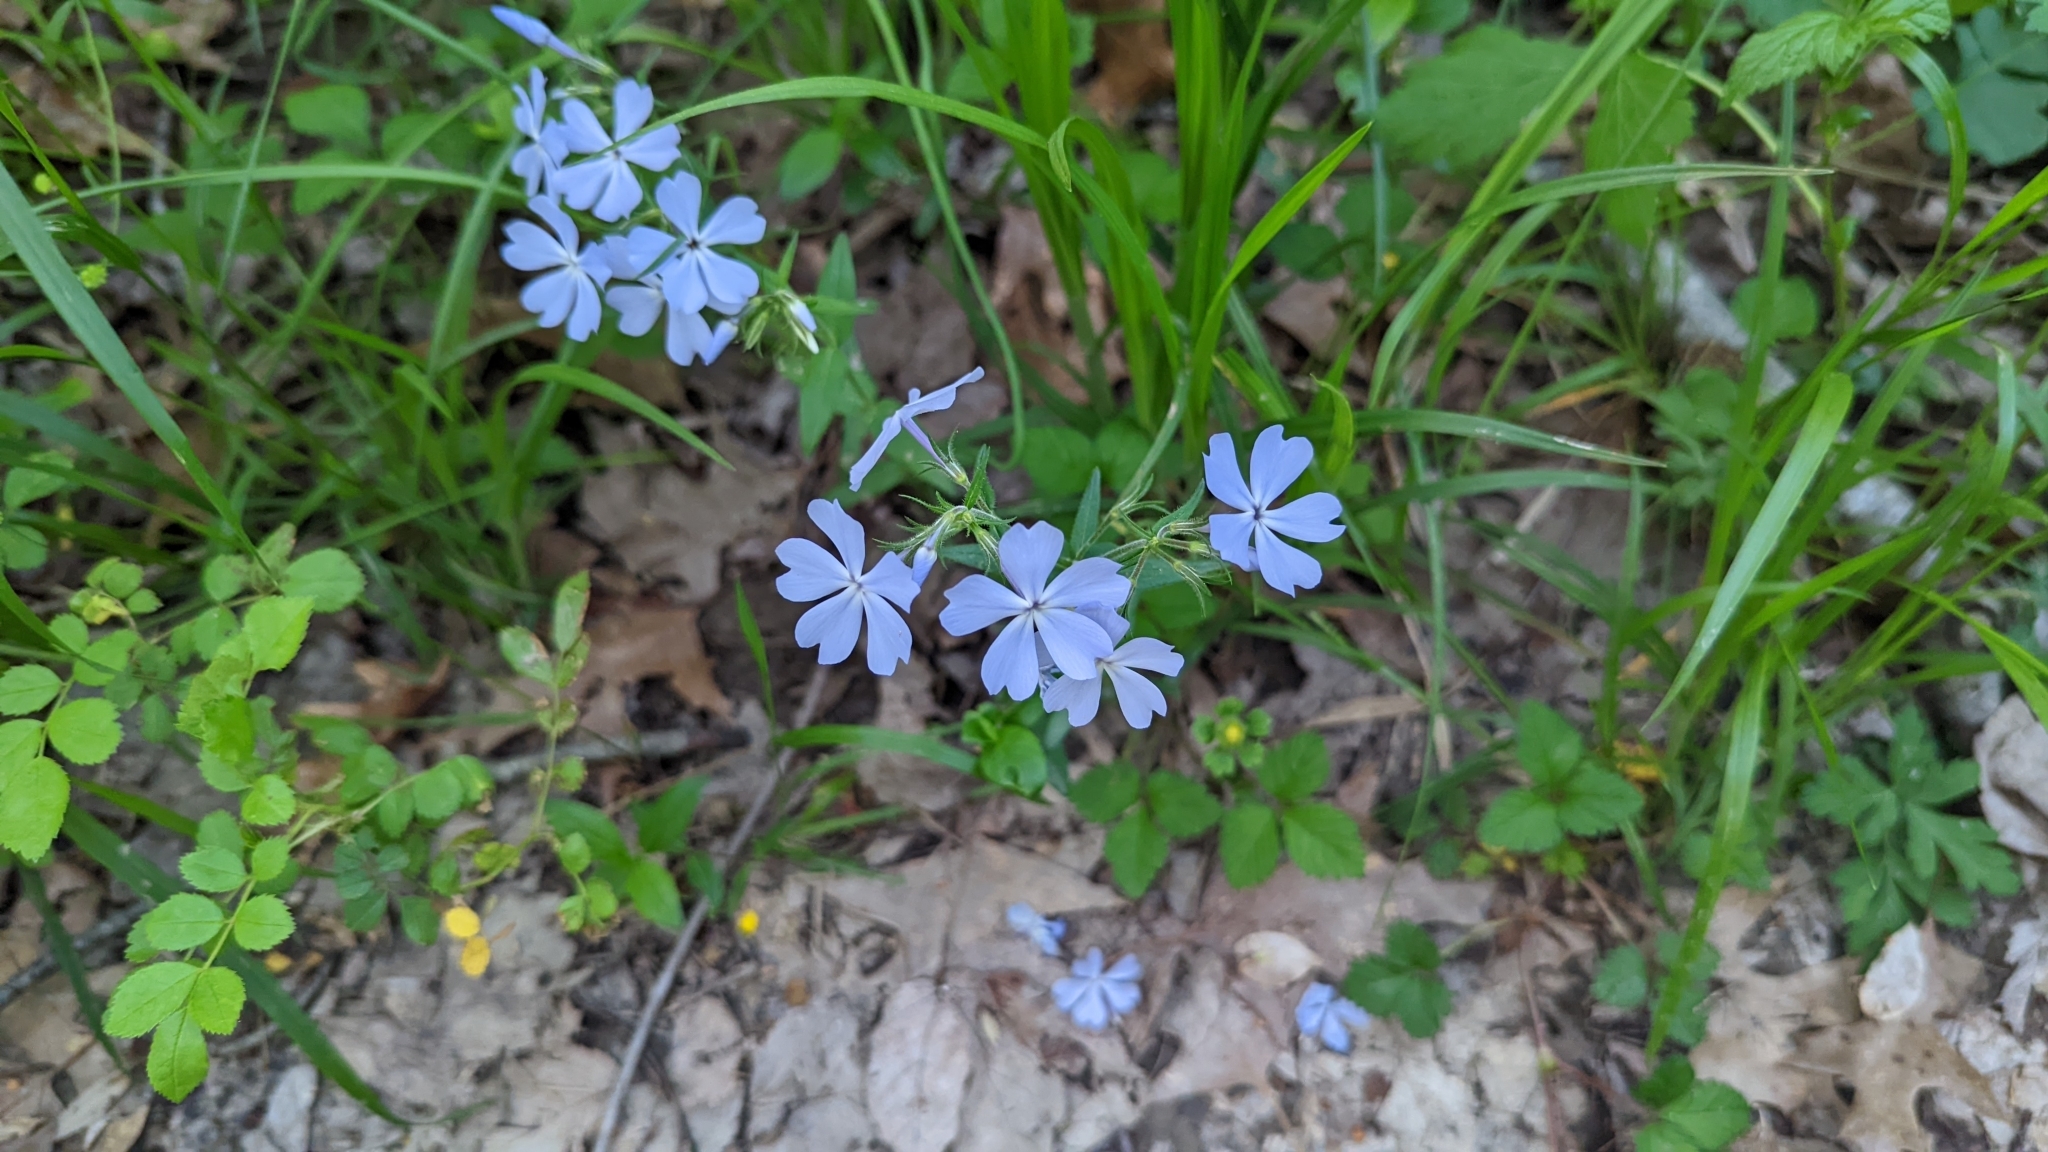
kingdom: Plantae
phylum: Tracheophyta
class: Magnoliopsida
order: Ericales
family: Polemoniaceae
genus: Phlox
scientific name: Phlox divaricata
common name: Blue phlox
